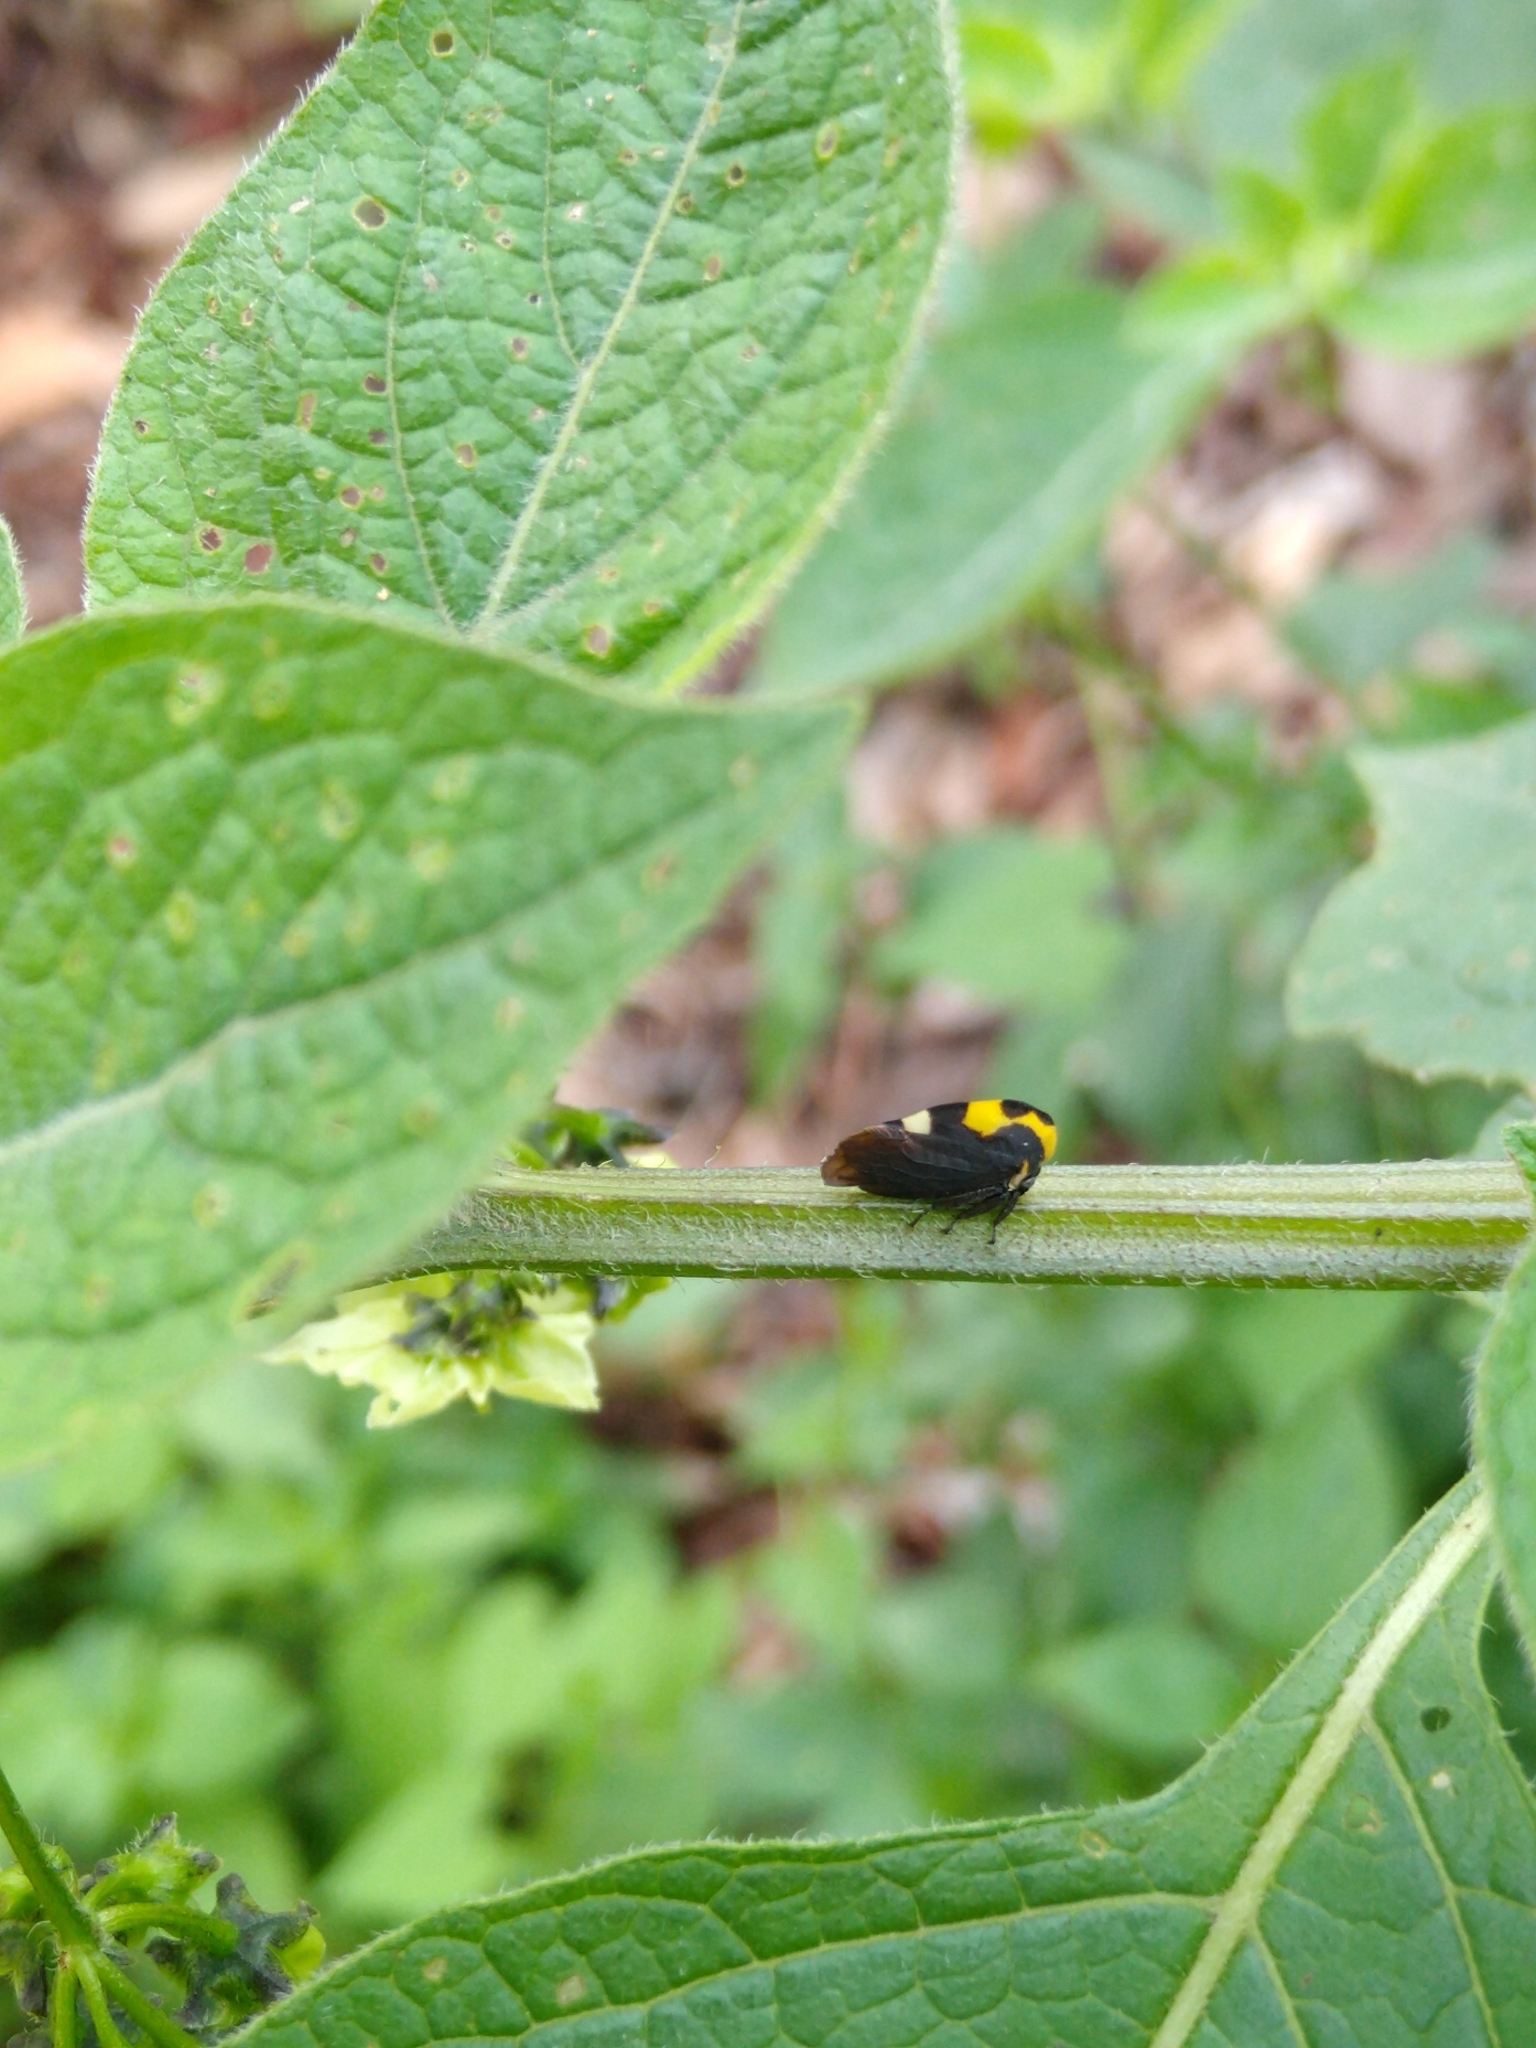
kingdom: Animalia
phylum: Arthropoda
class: Insecta
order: Hemiptera
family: Membracidae
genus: Membracis
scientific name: Membracis mexicana
